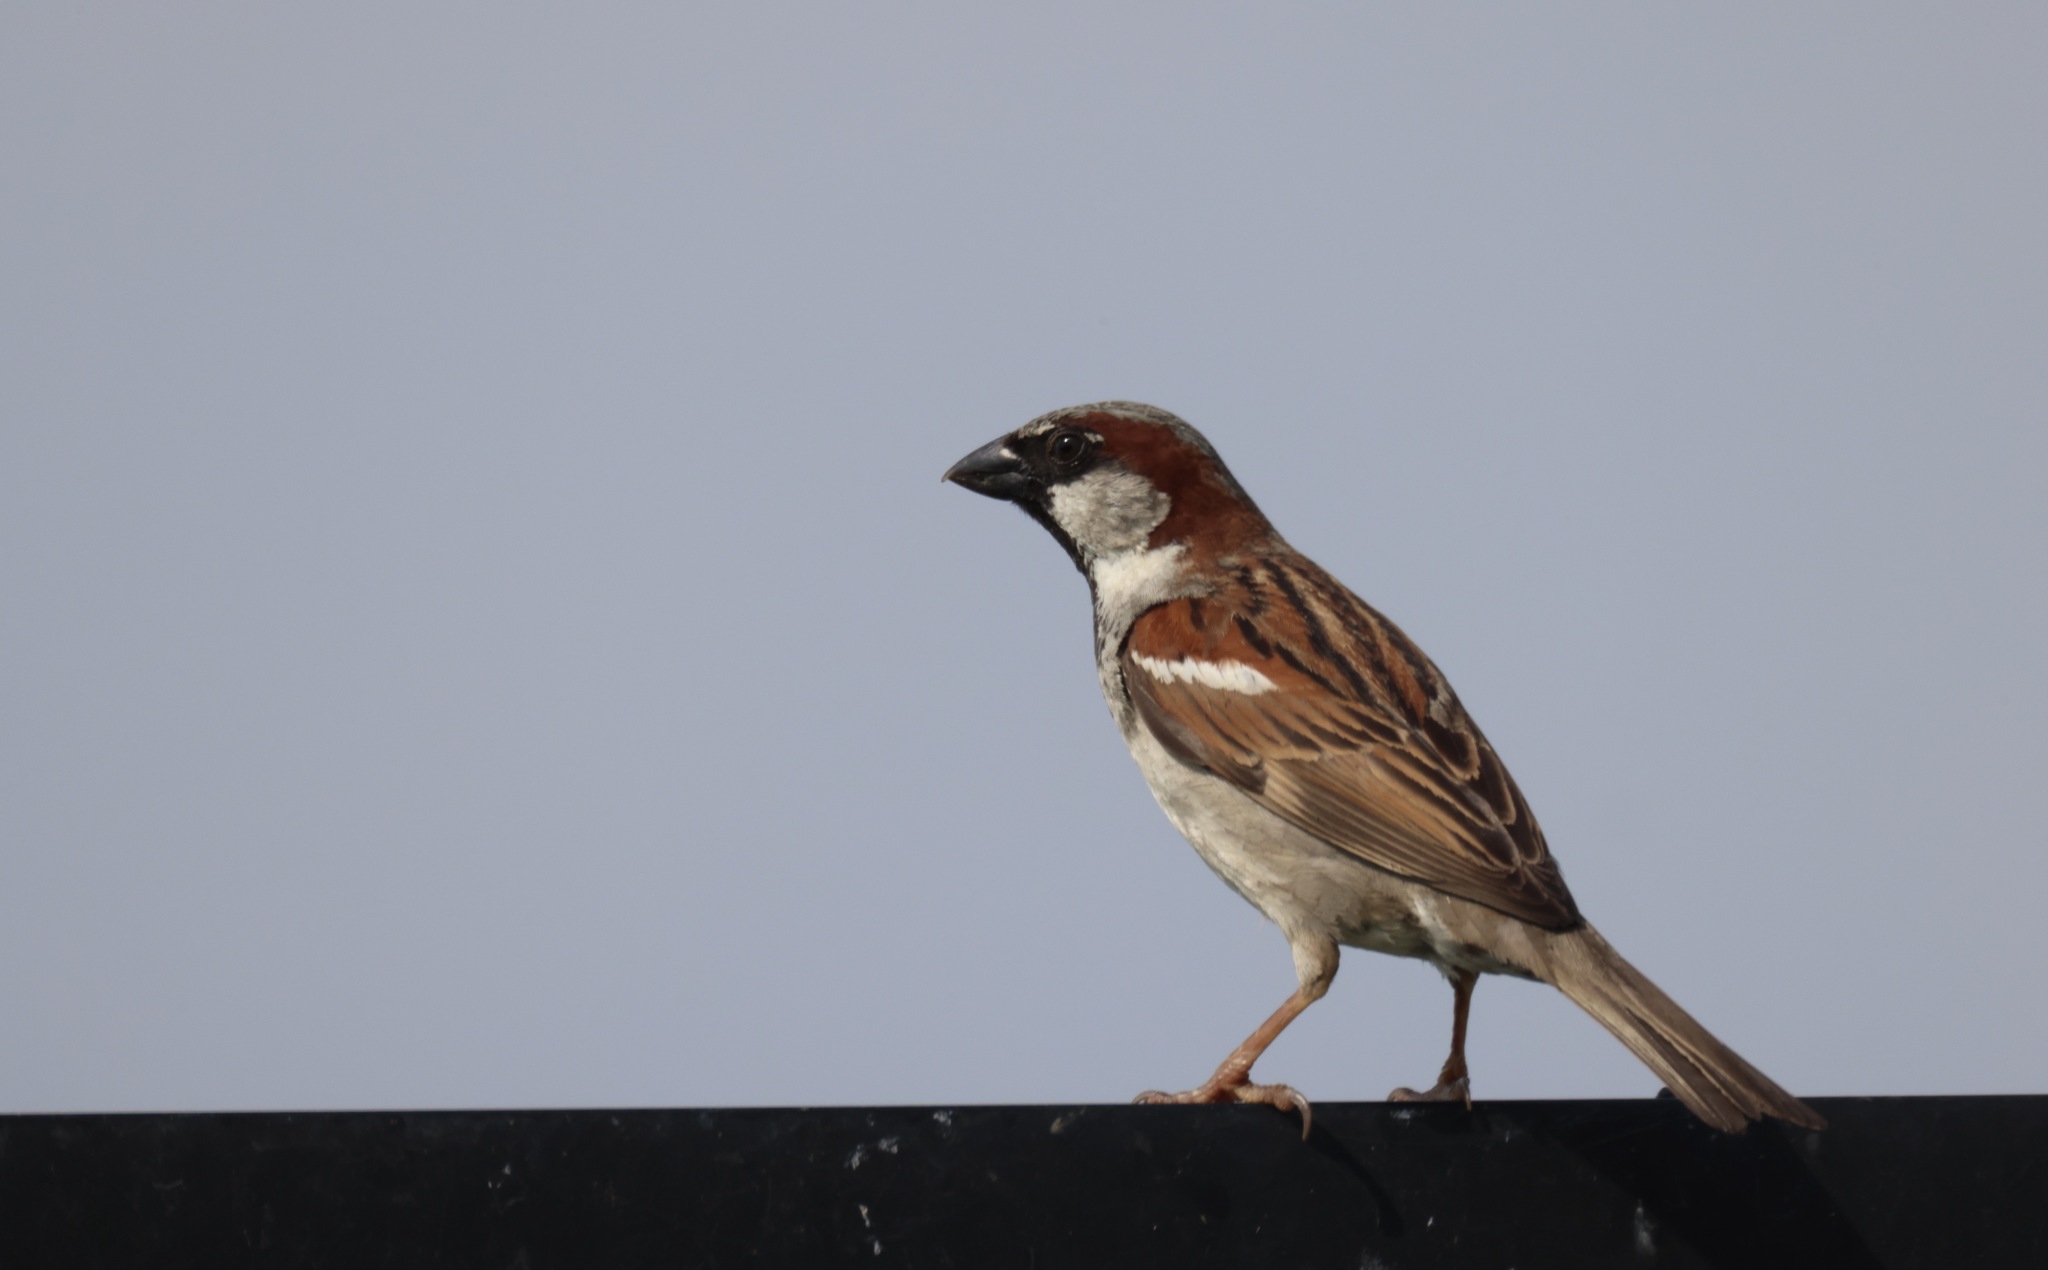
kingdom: Animalia
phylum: Chordata
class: Aves
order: Passeriformes
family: Passeridae
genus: Passer
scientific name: Passer domesticus
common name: House sparrow
